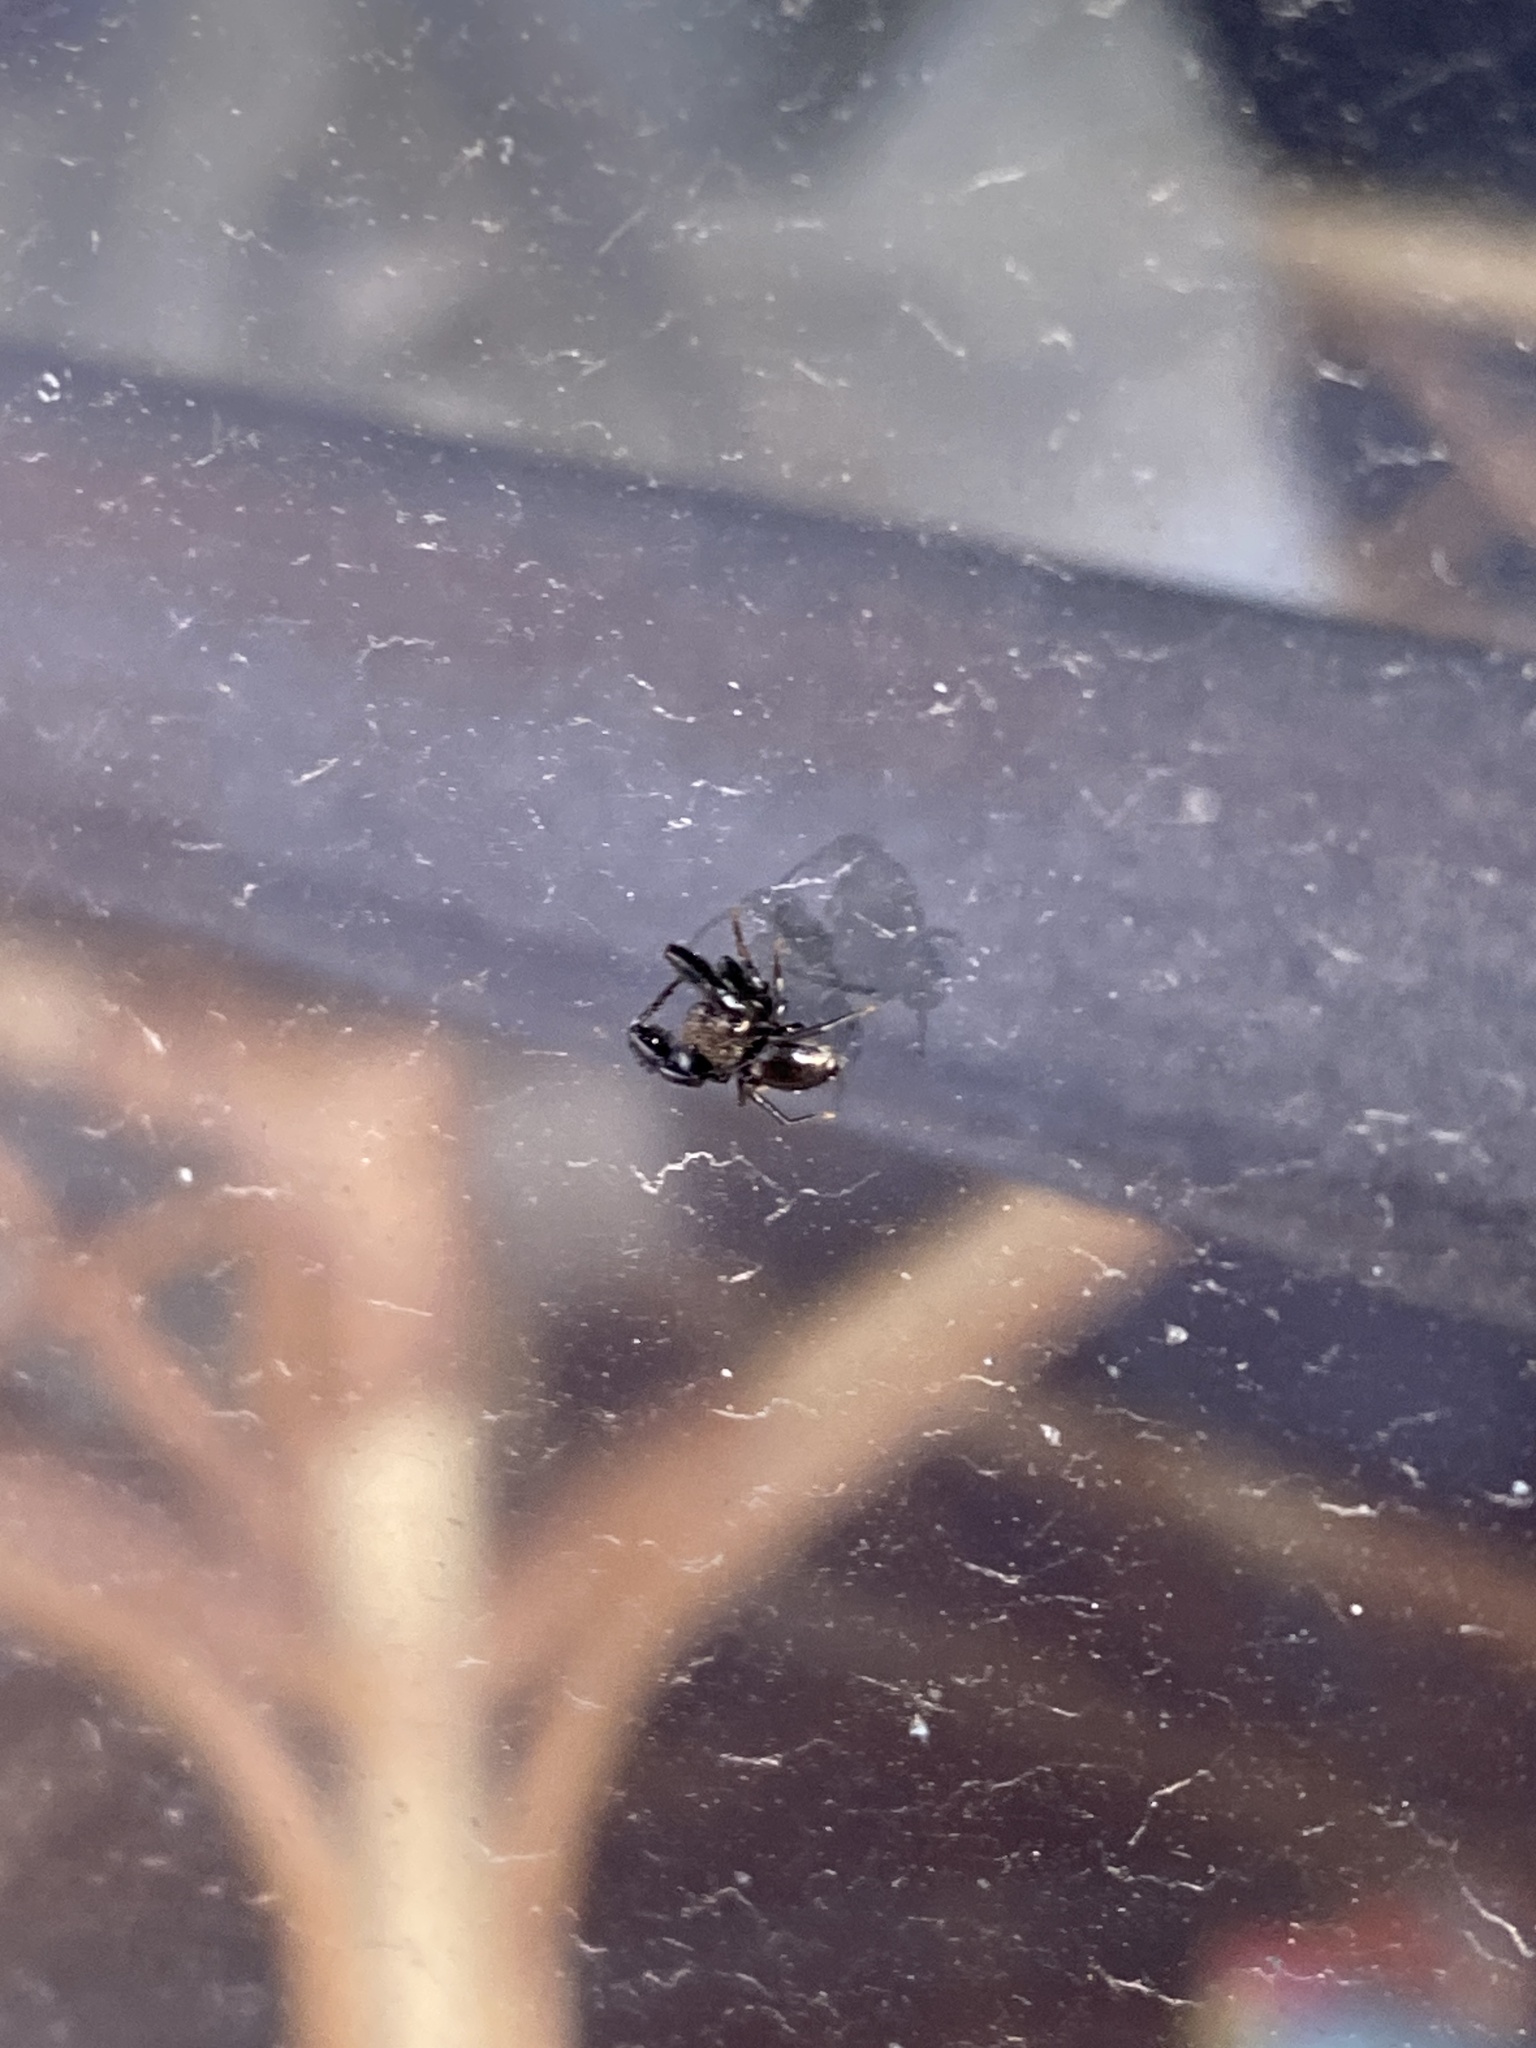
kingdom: Animalia
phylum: Arthropoda
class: Arachnida
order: Araneae
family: Salticidae
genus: Harmochirus
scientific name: Harmochirus luculentus
